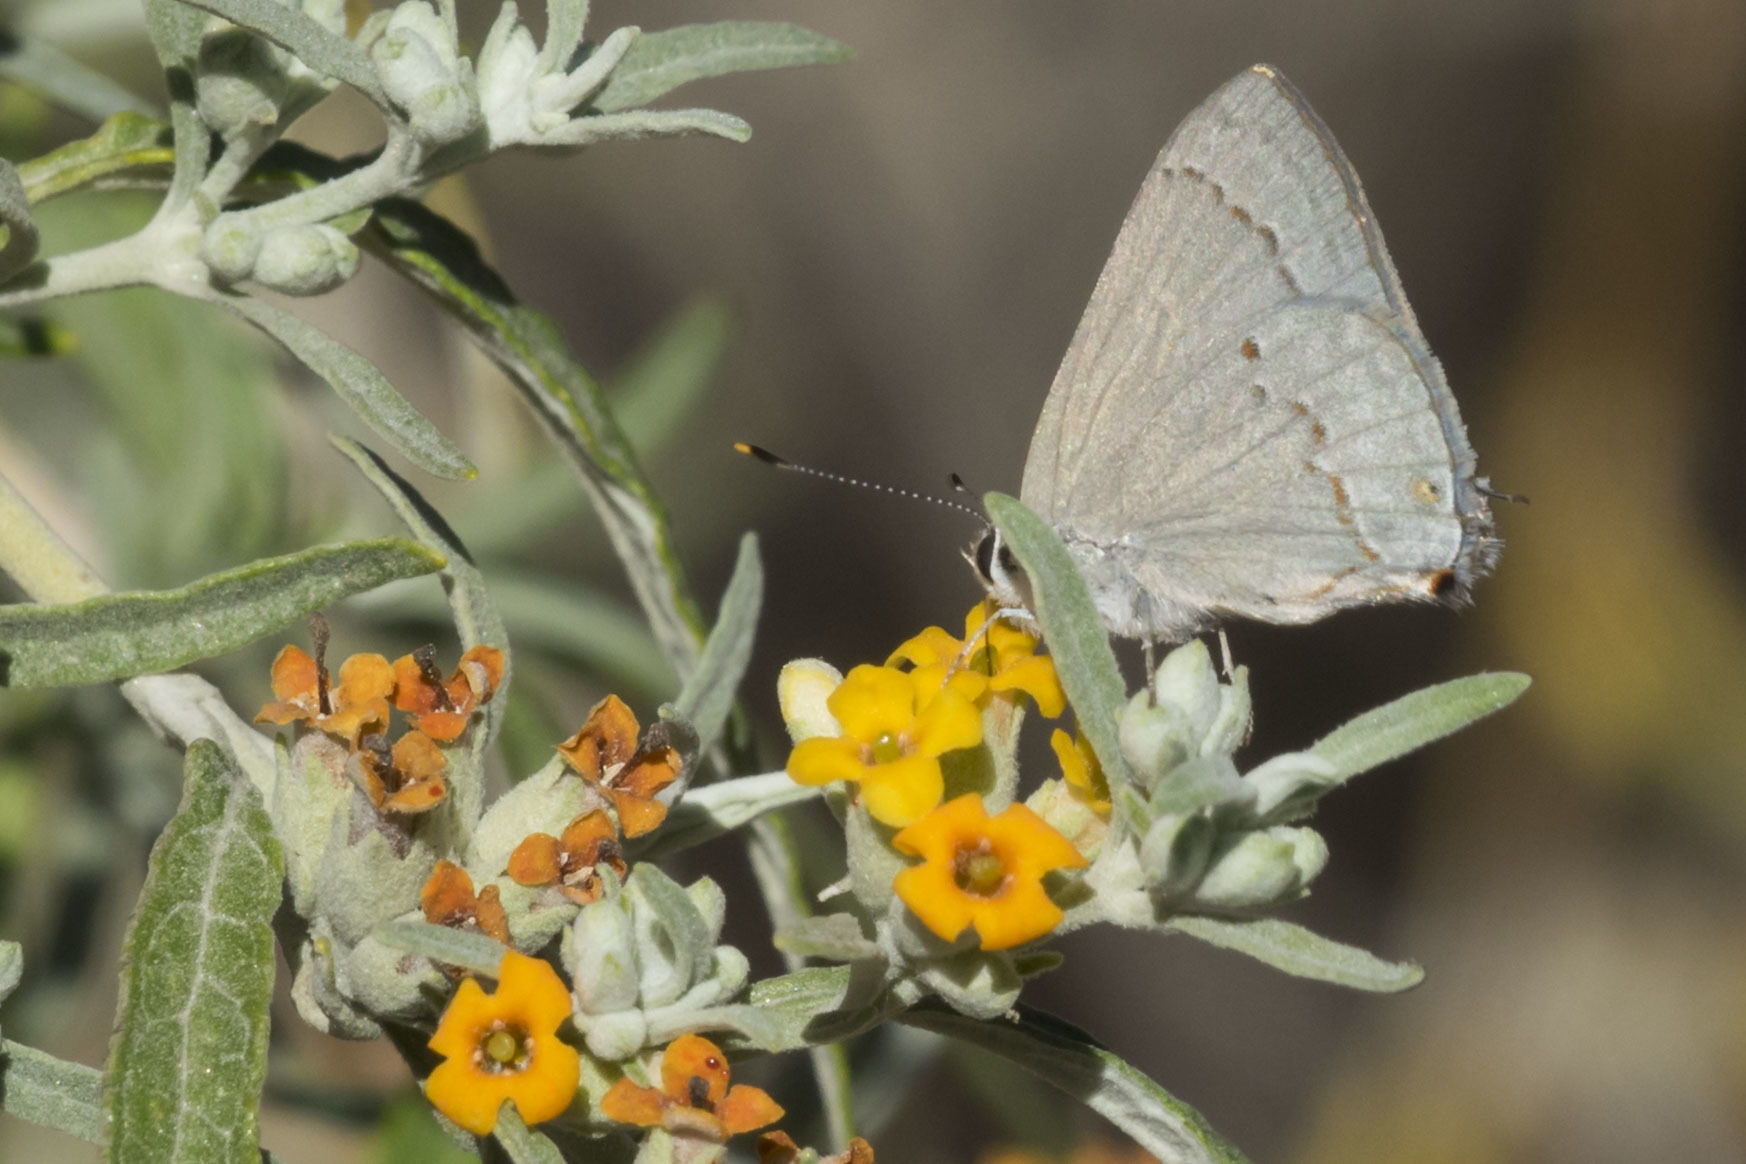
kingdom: Animalia
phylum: Arthropoda
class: Insecta
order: Lepidoptera
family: Lycaenidae
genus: Thecla
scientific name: Thecla rufofusca
